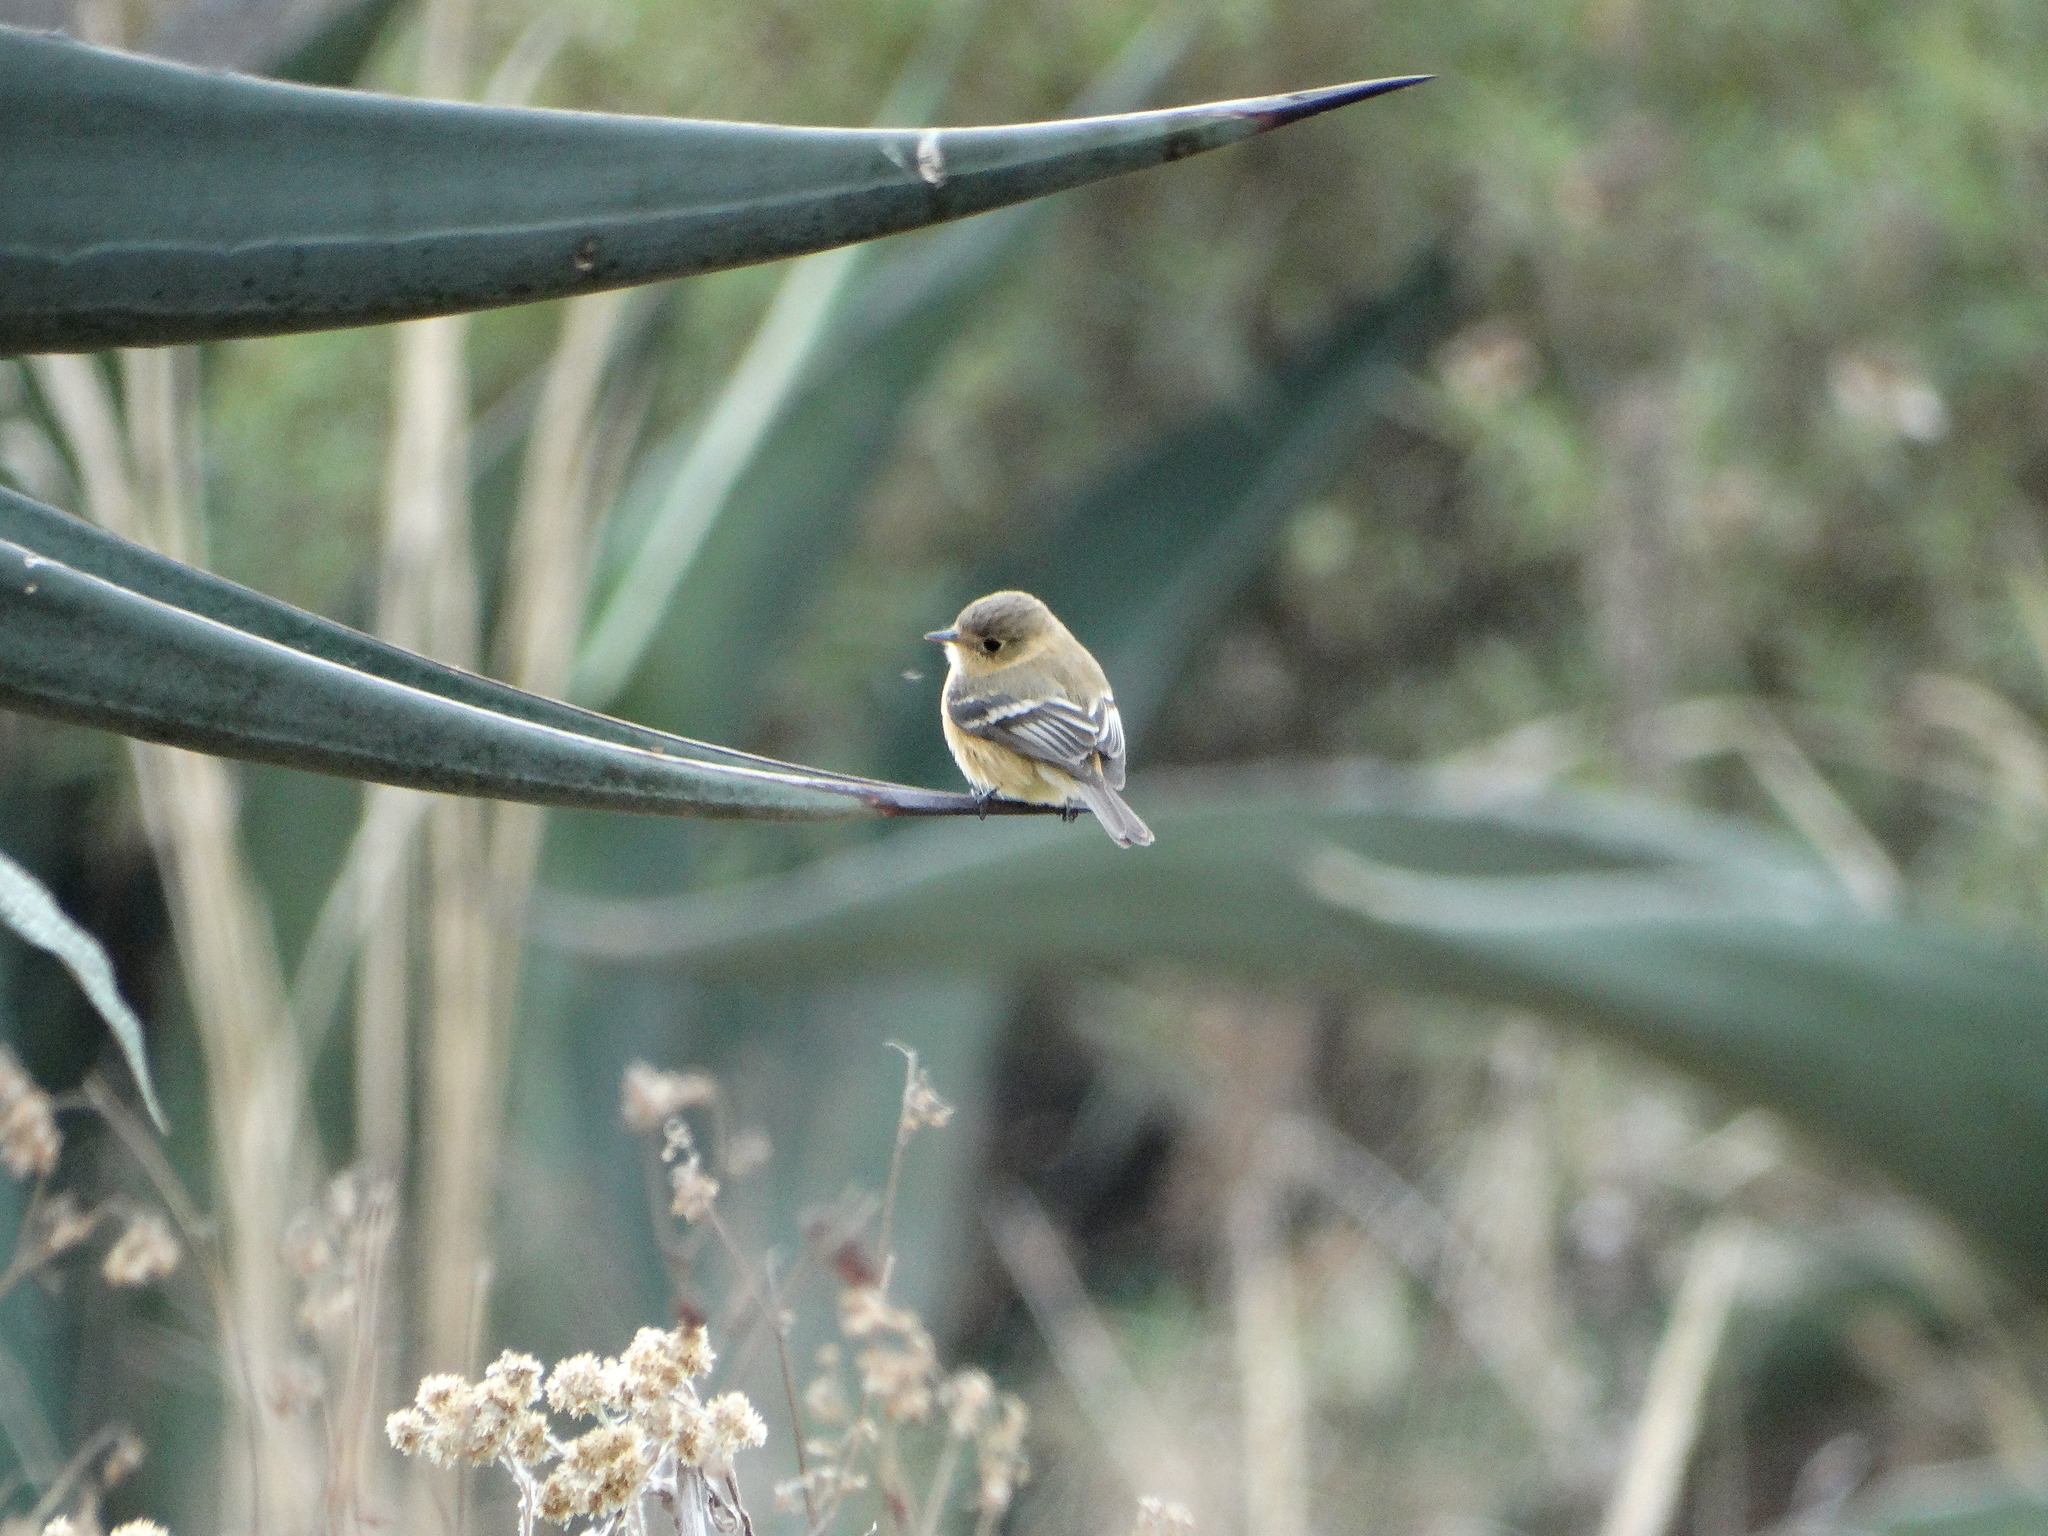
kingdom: Animalia
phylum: Chordata
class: Aves
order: Passeriformes
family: Tyrannidae
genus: Empidonax
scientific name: Empidonax fulvifrons
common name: Buff-breasted flycatcher
